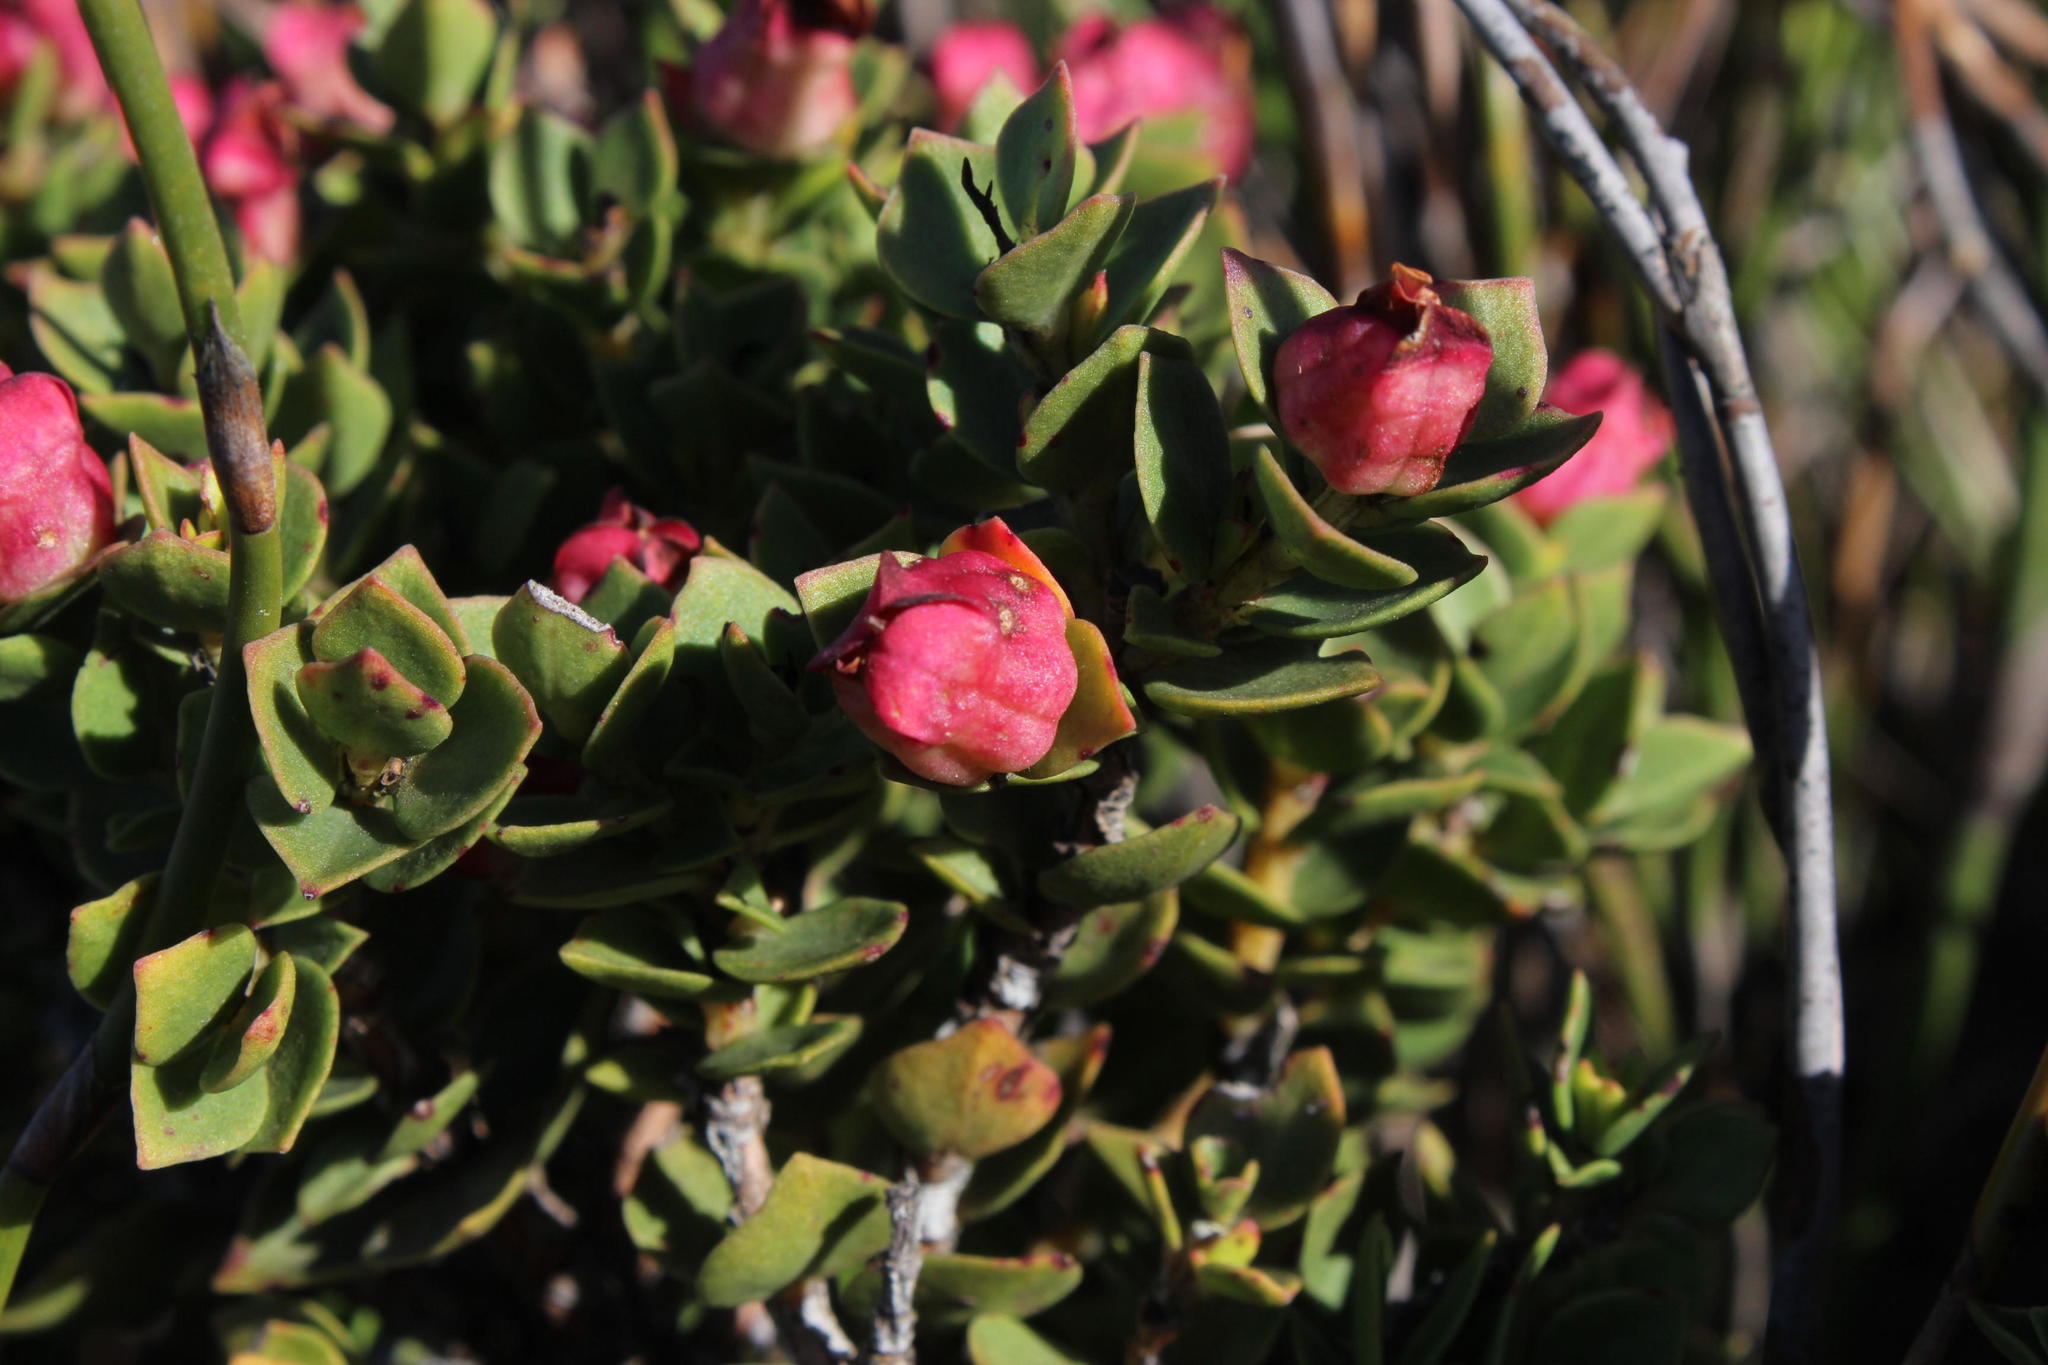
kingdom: Plantae
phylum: Tracheophyta
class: Magnoliopsida
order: Myrtales
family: Penaeaceae
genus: Brachysiphon
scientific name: Brachysiphon fucatus
